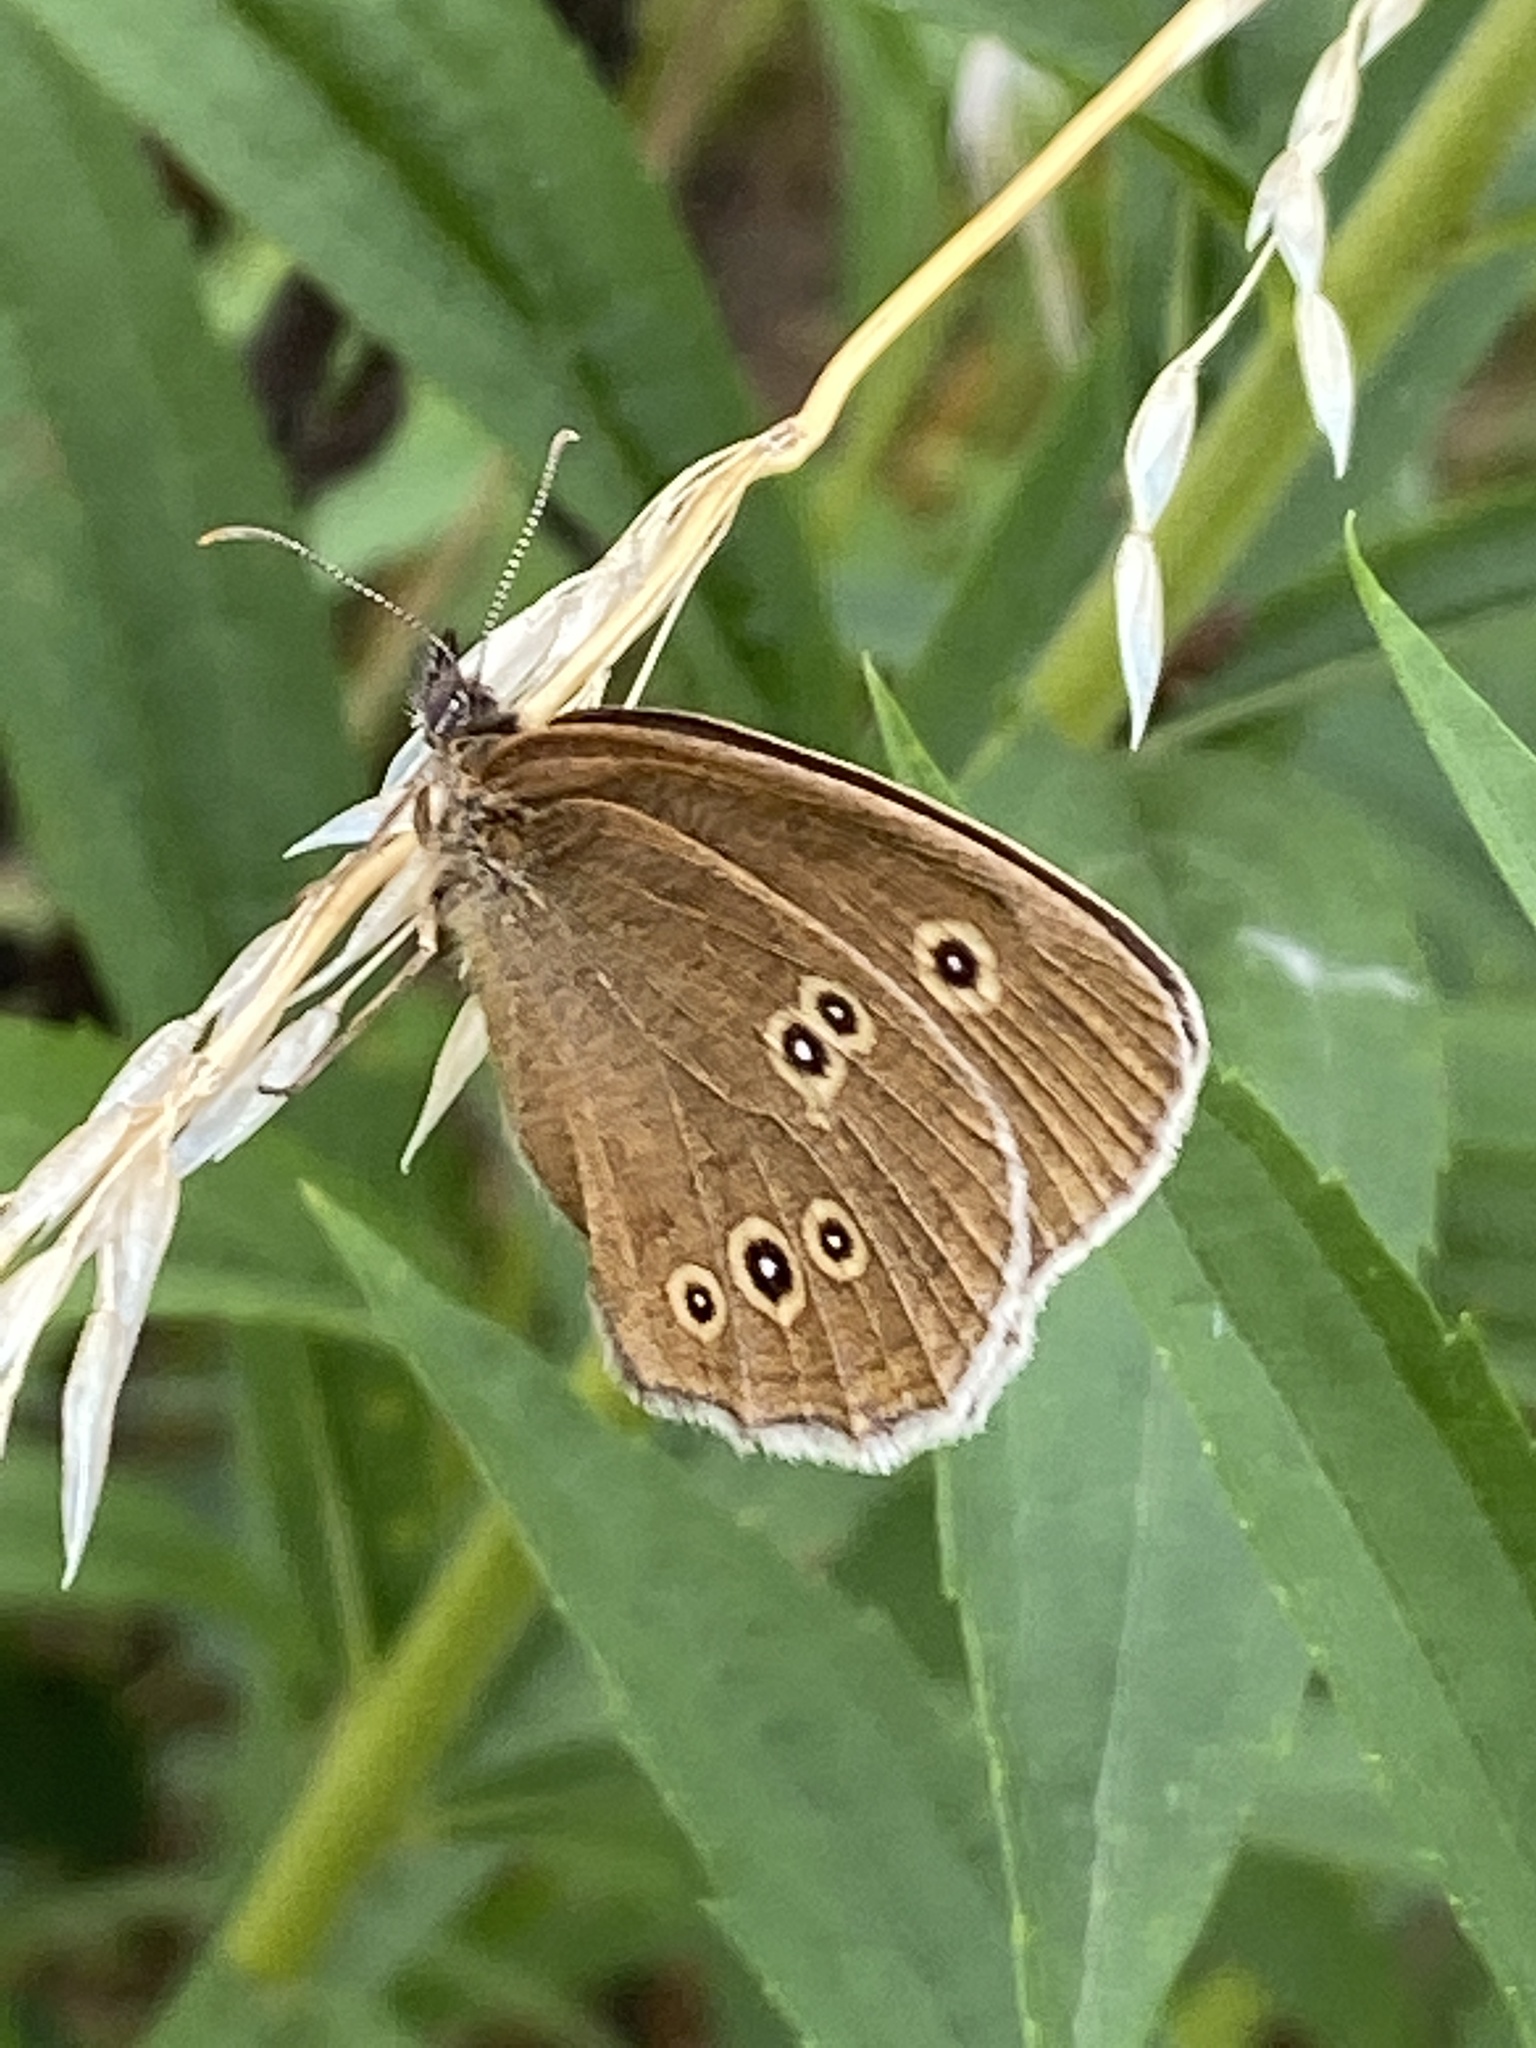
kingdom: Animalia
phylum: Arthropoda
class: Insecta
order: Lepidoptera
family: Nymphalidae
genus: Aphantopus
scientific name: Aphantopus hyperantus
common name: Ringlet
